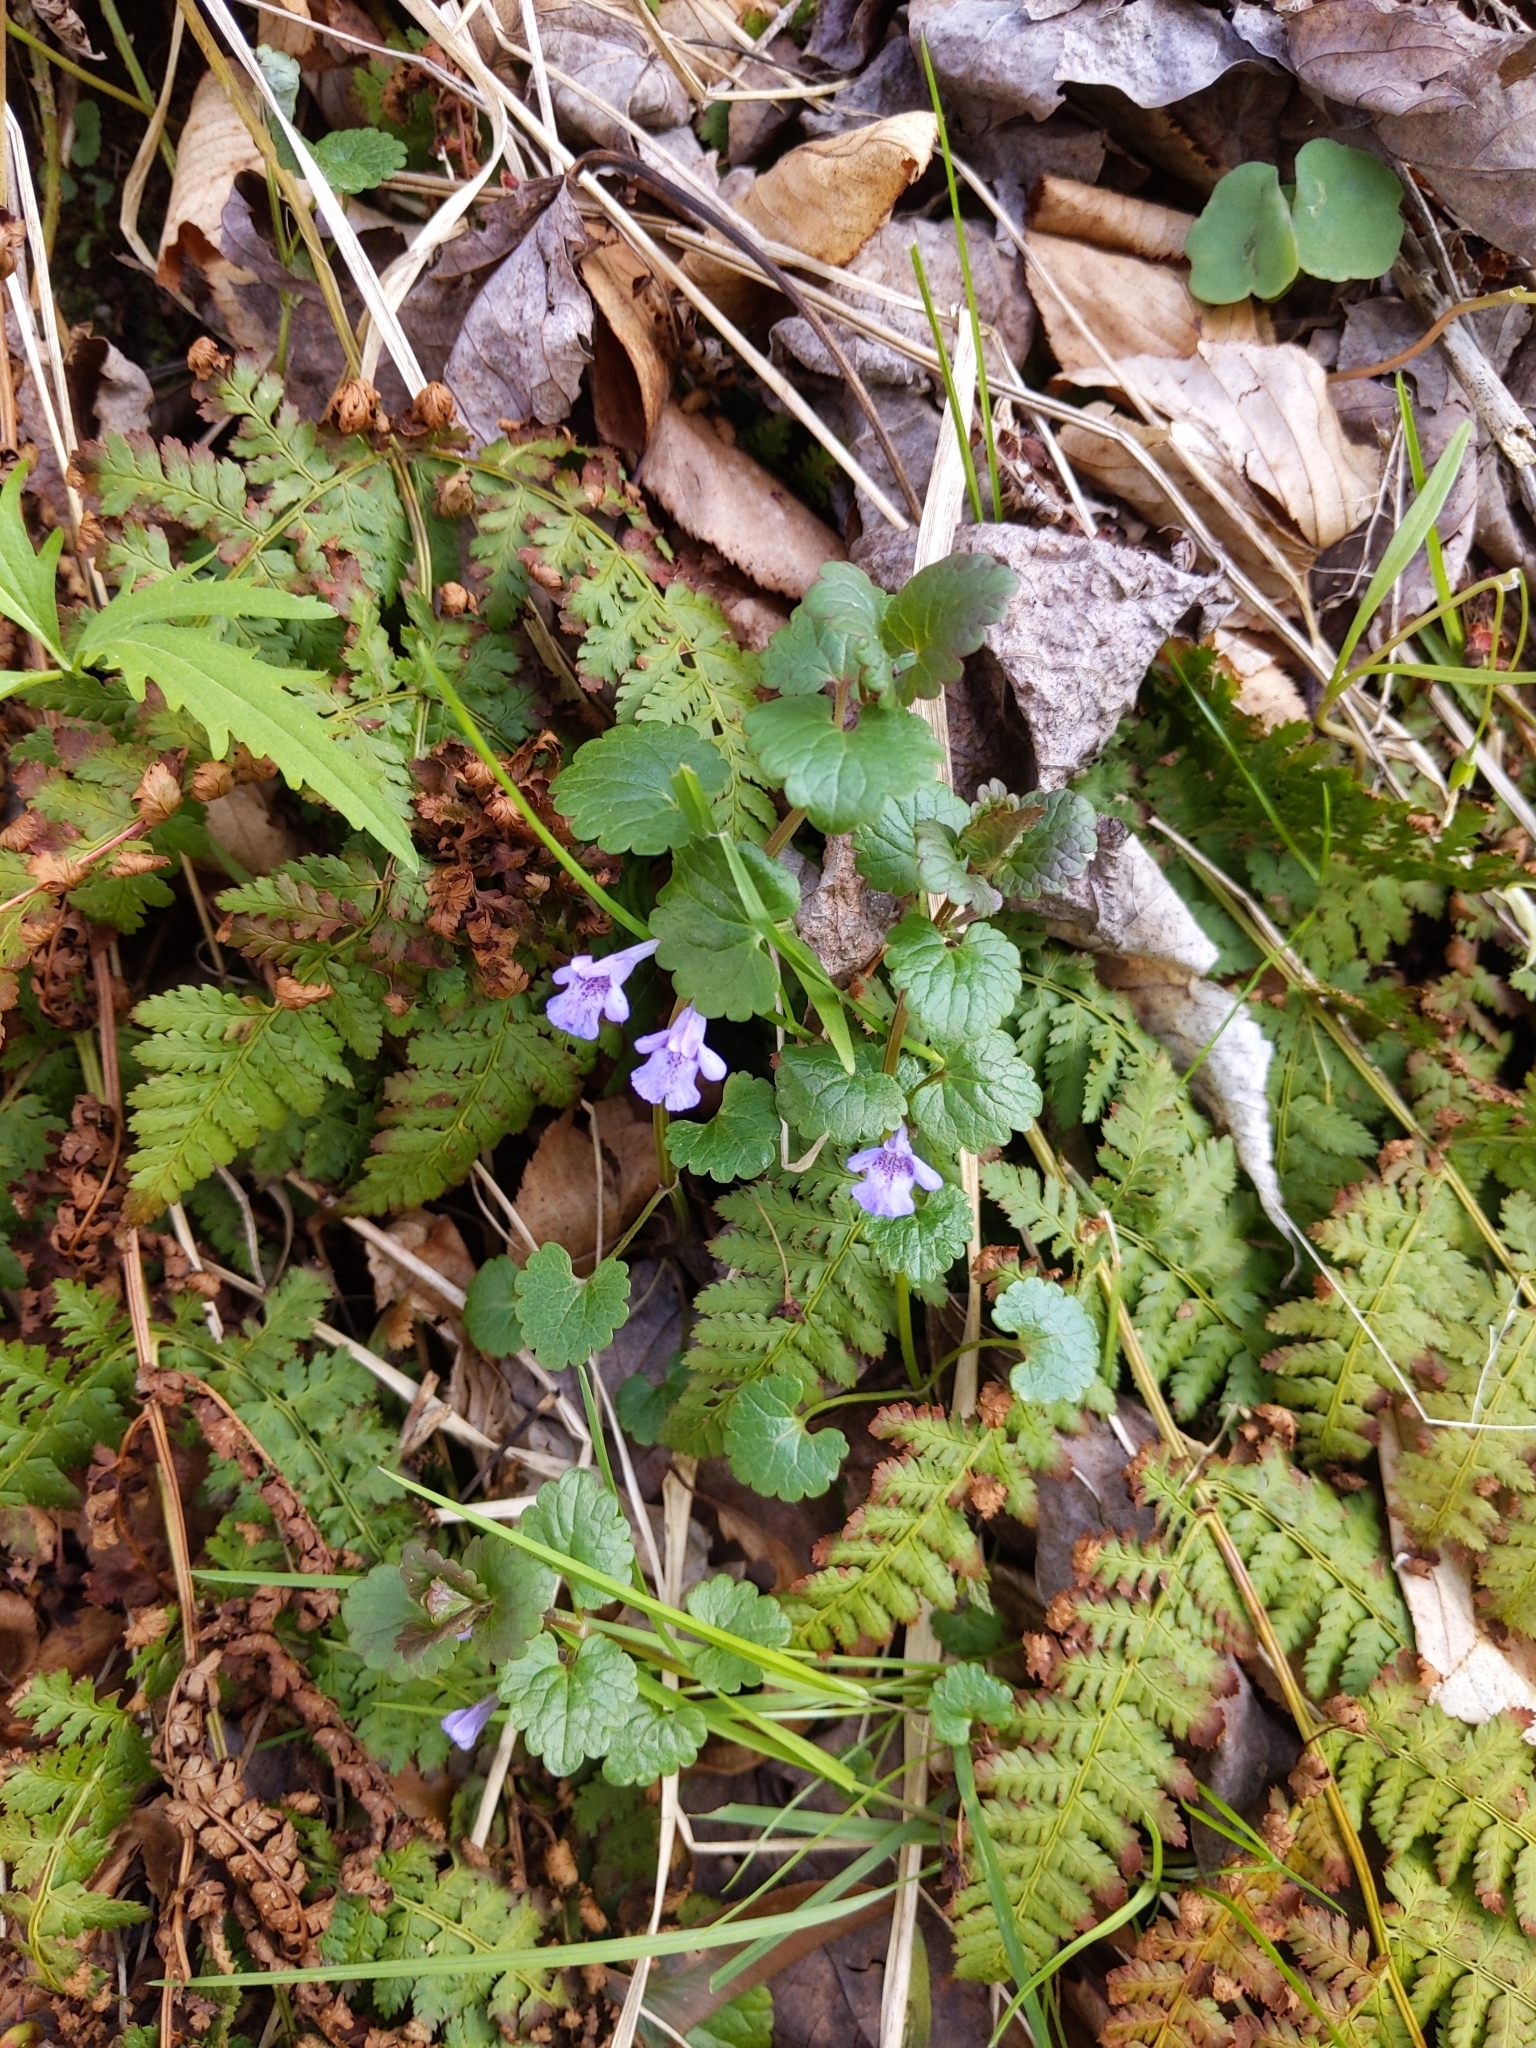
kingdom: Plantae
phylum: Tracheophyta
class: Magnoliopsida
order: Lamiales
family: Lamiaceae
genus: Glechoma
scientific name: Glechoma hederacea
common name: Ground ivy
